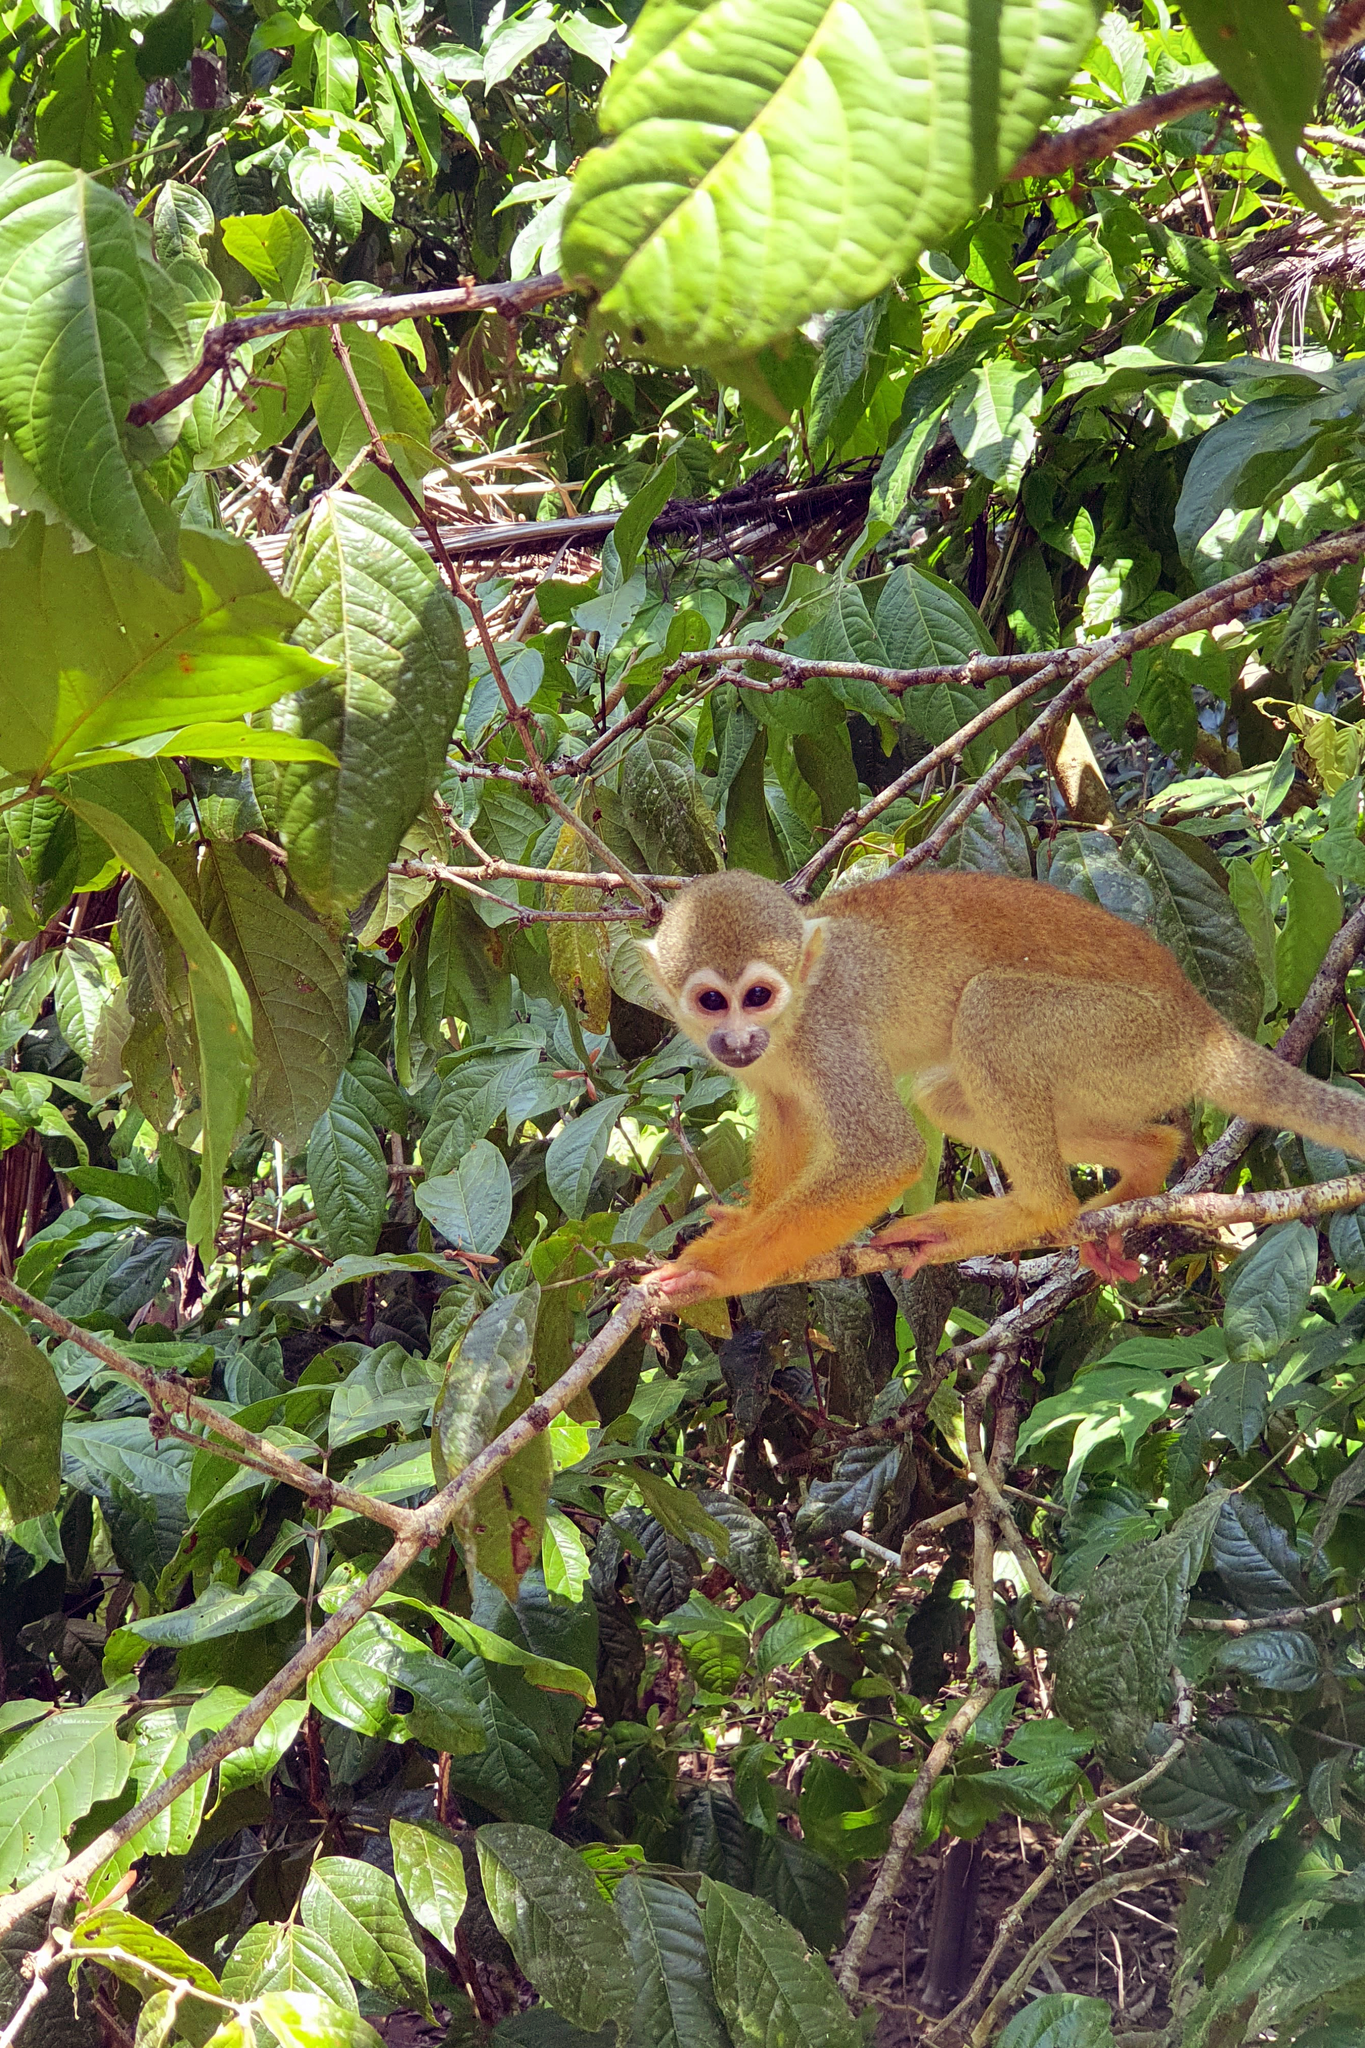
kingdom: Animalia
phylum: Chordata
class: Mammalia
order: Primates
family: Cebidae
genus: Saimiri
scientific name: Saimiri sciureus
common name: Common squirrel monkey
